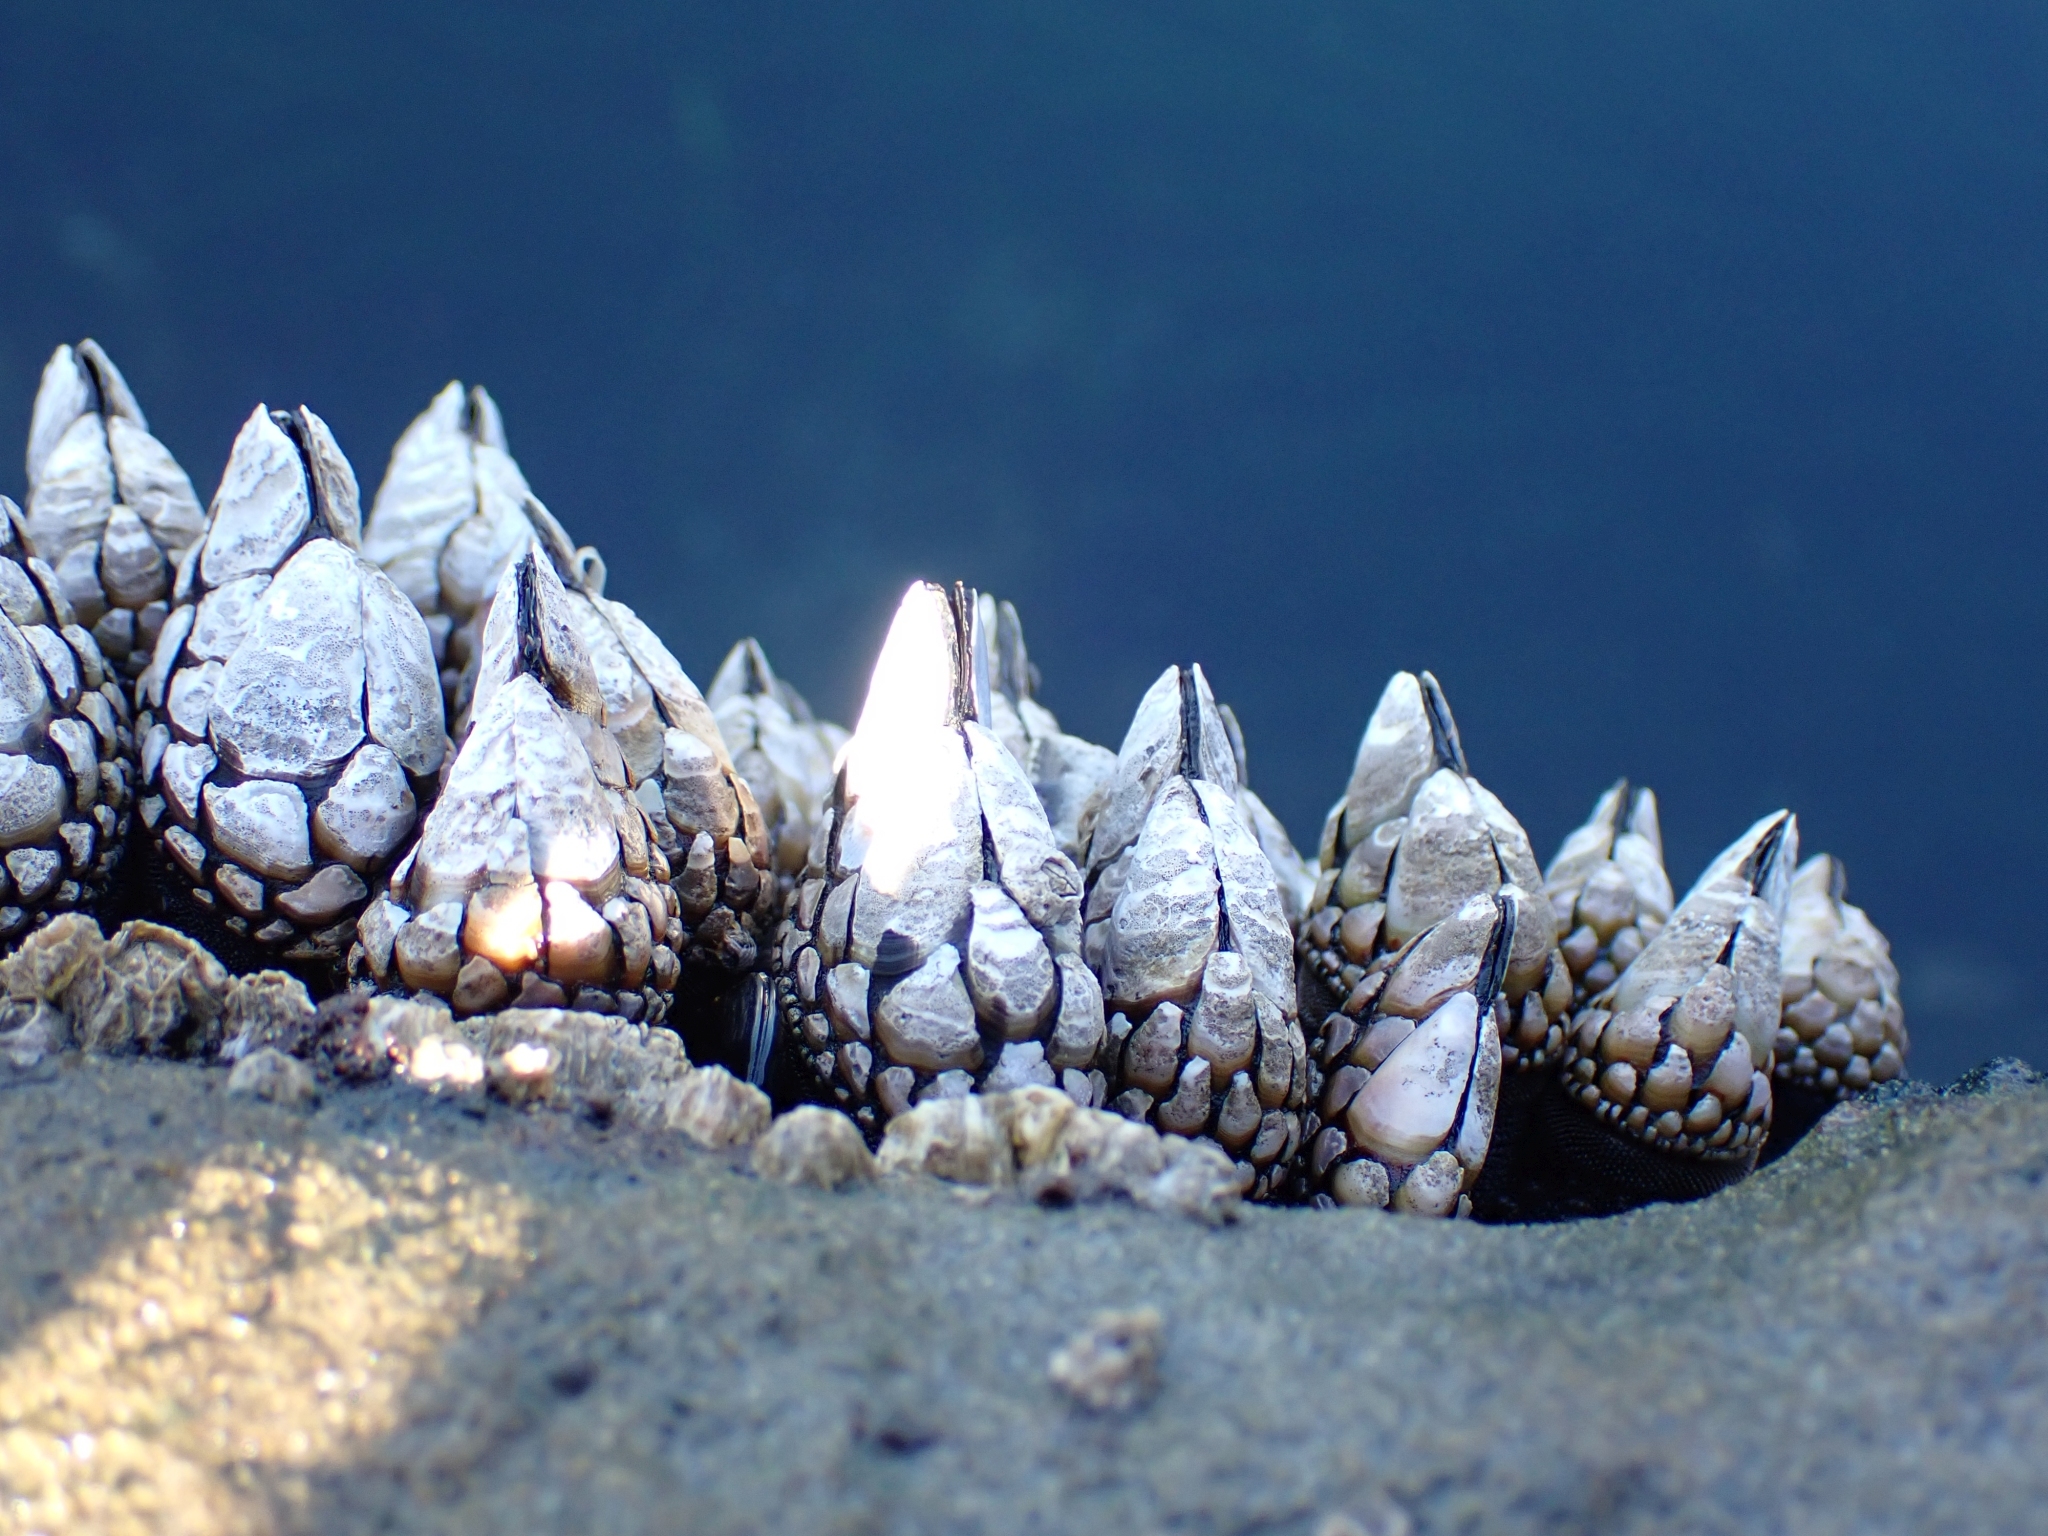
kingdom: Animalia
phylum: Arthropoda
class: Maxillopoda
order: Pedunculata
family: Pollicipedidae
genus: Pollicipes
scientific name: Pollicipes polymerus
